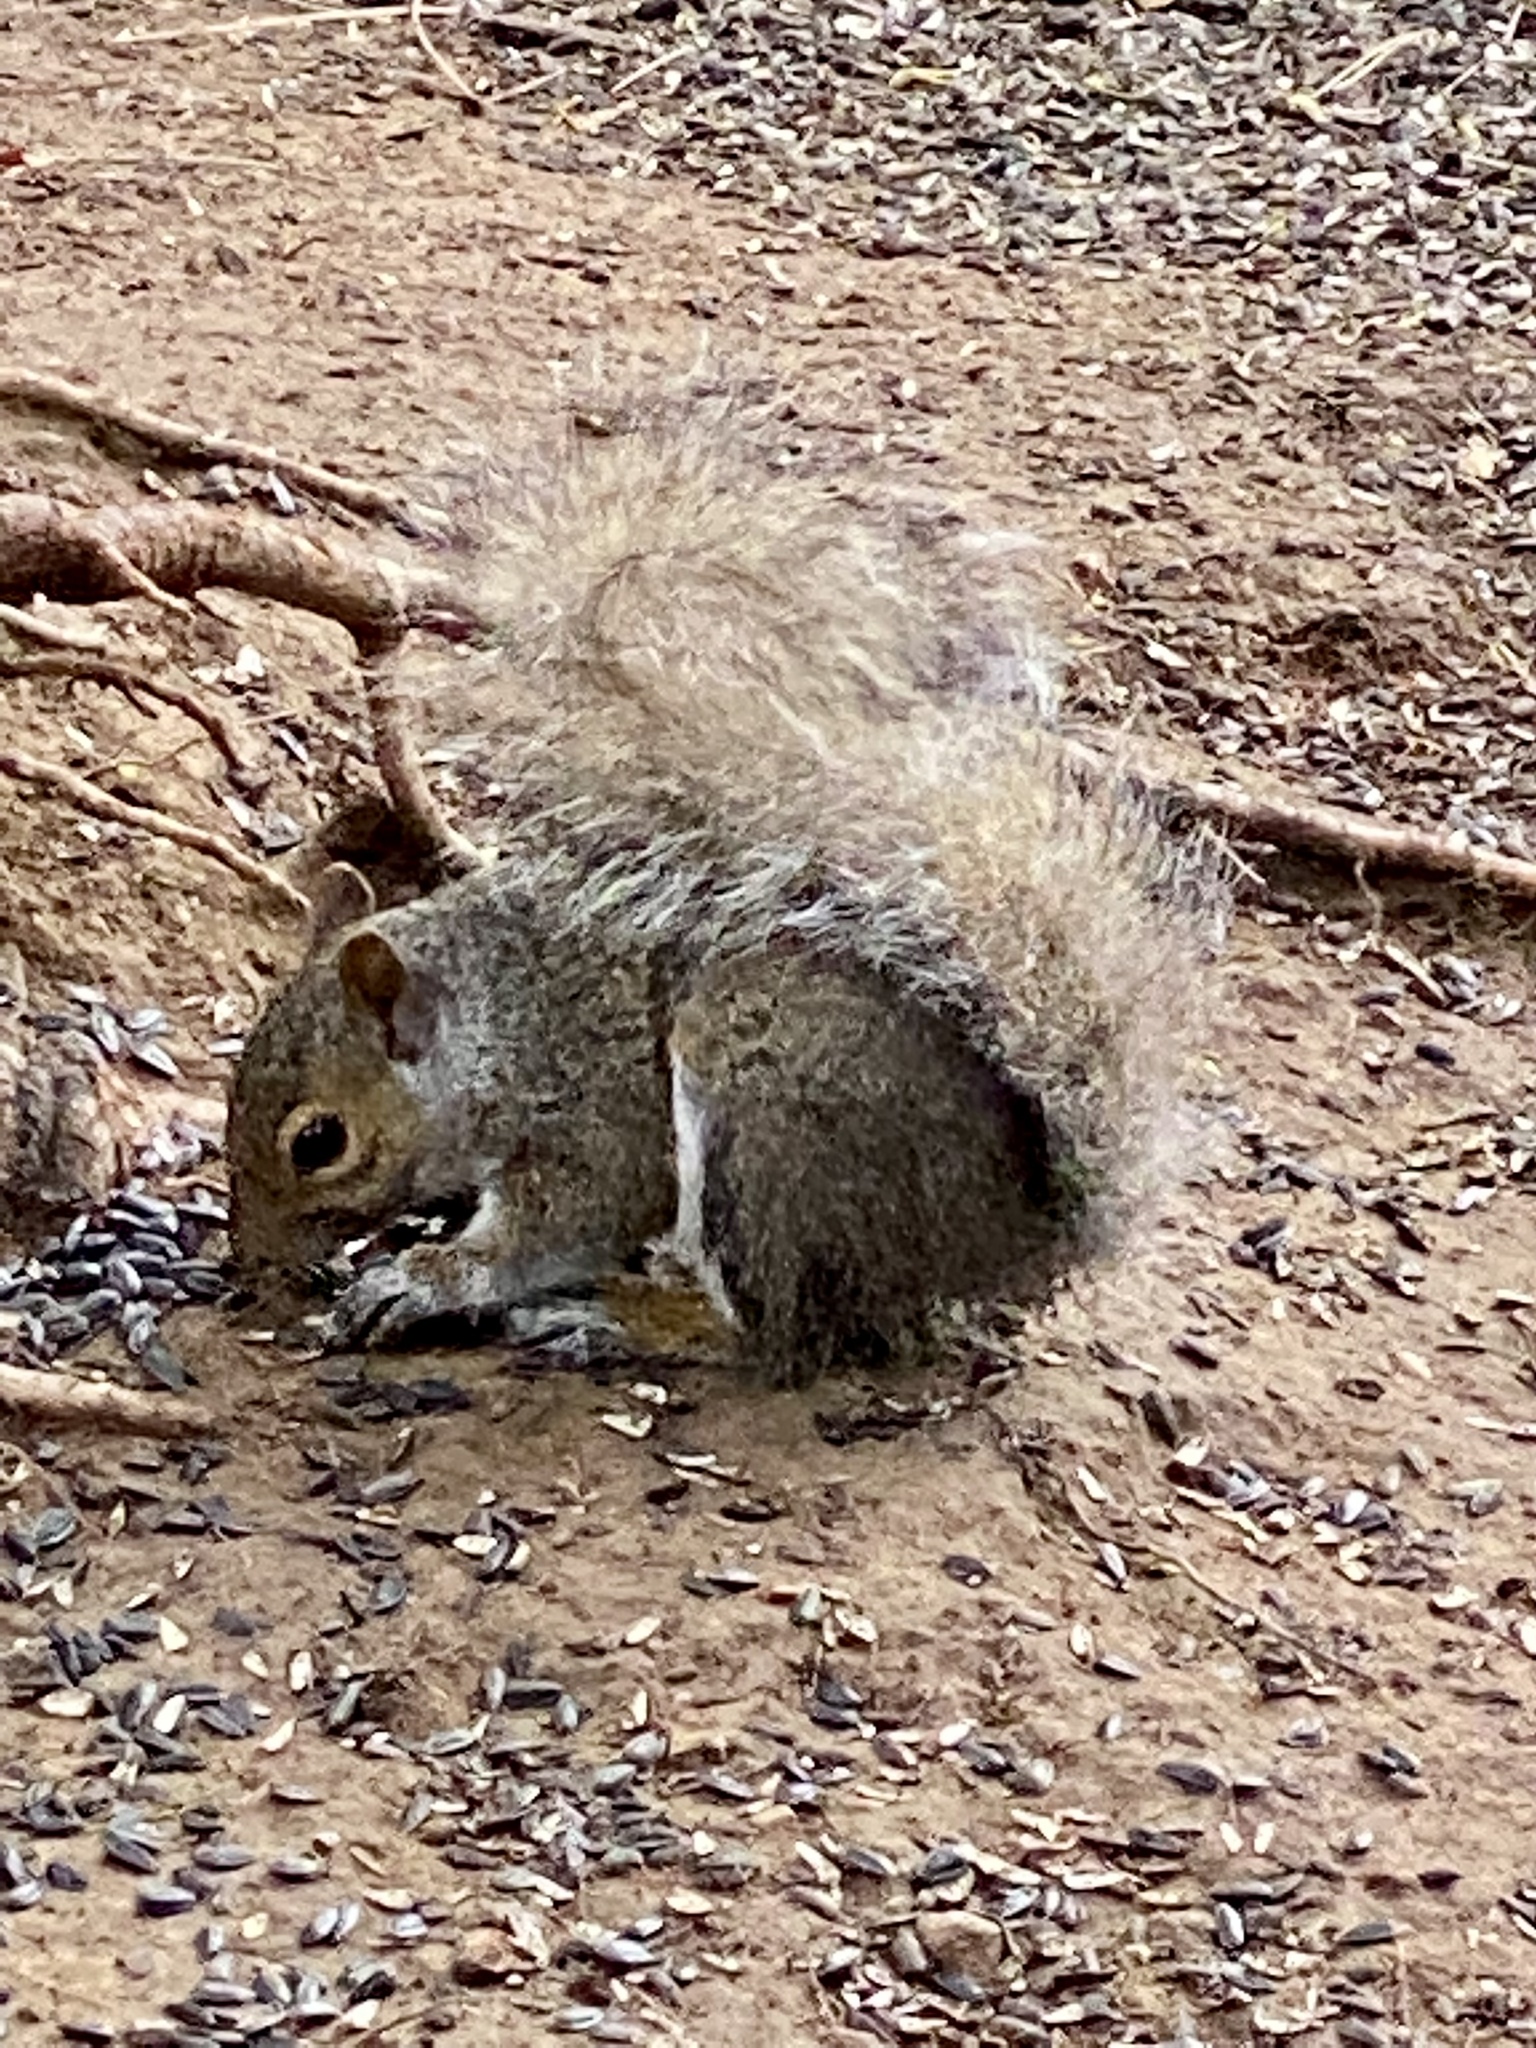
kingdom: Animalia
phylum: Chordata
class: Mammalia
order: Rodentia
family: Sciuridae
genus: Sciurus
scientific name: Sciurus carolinensis
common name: Eastern gray squirrel
